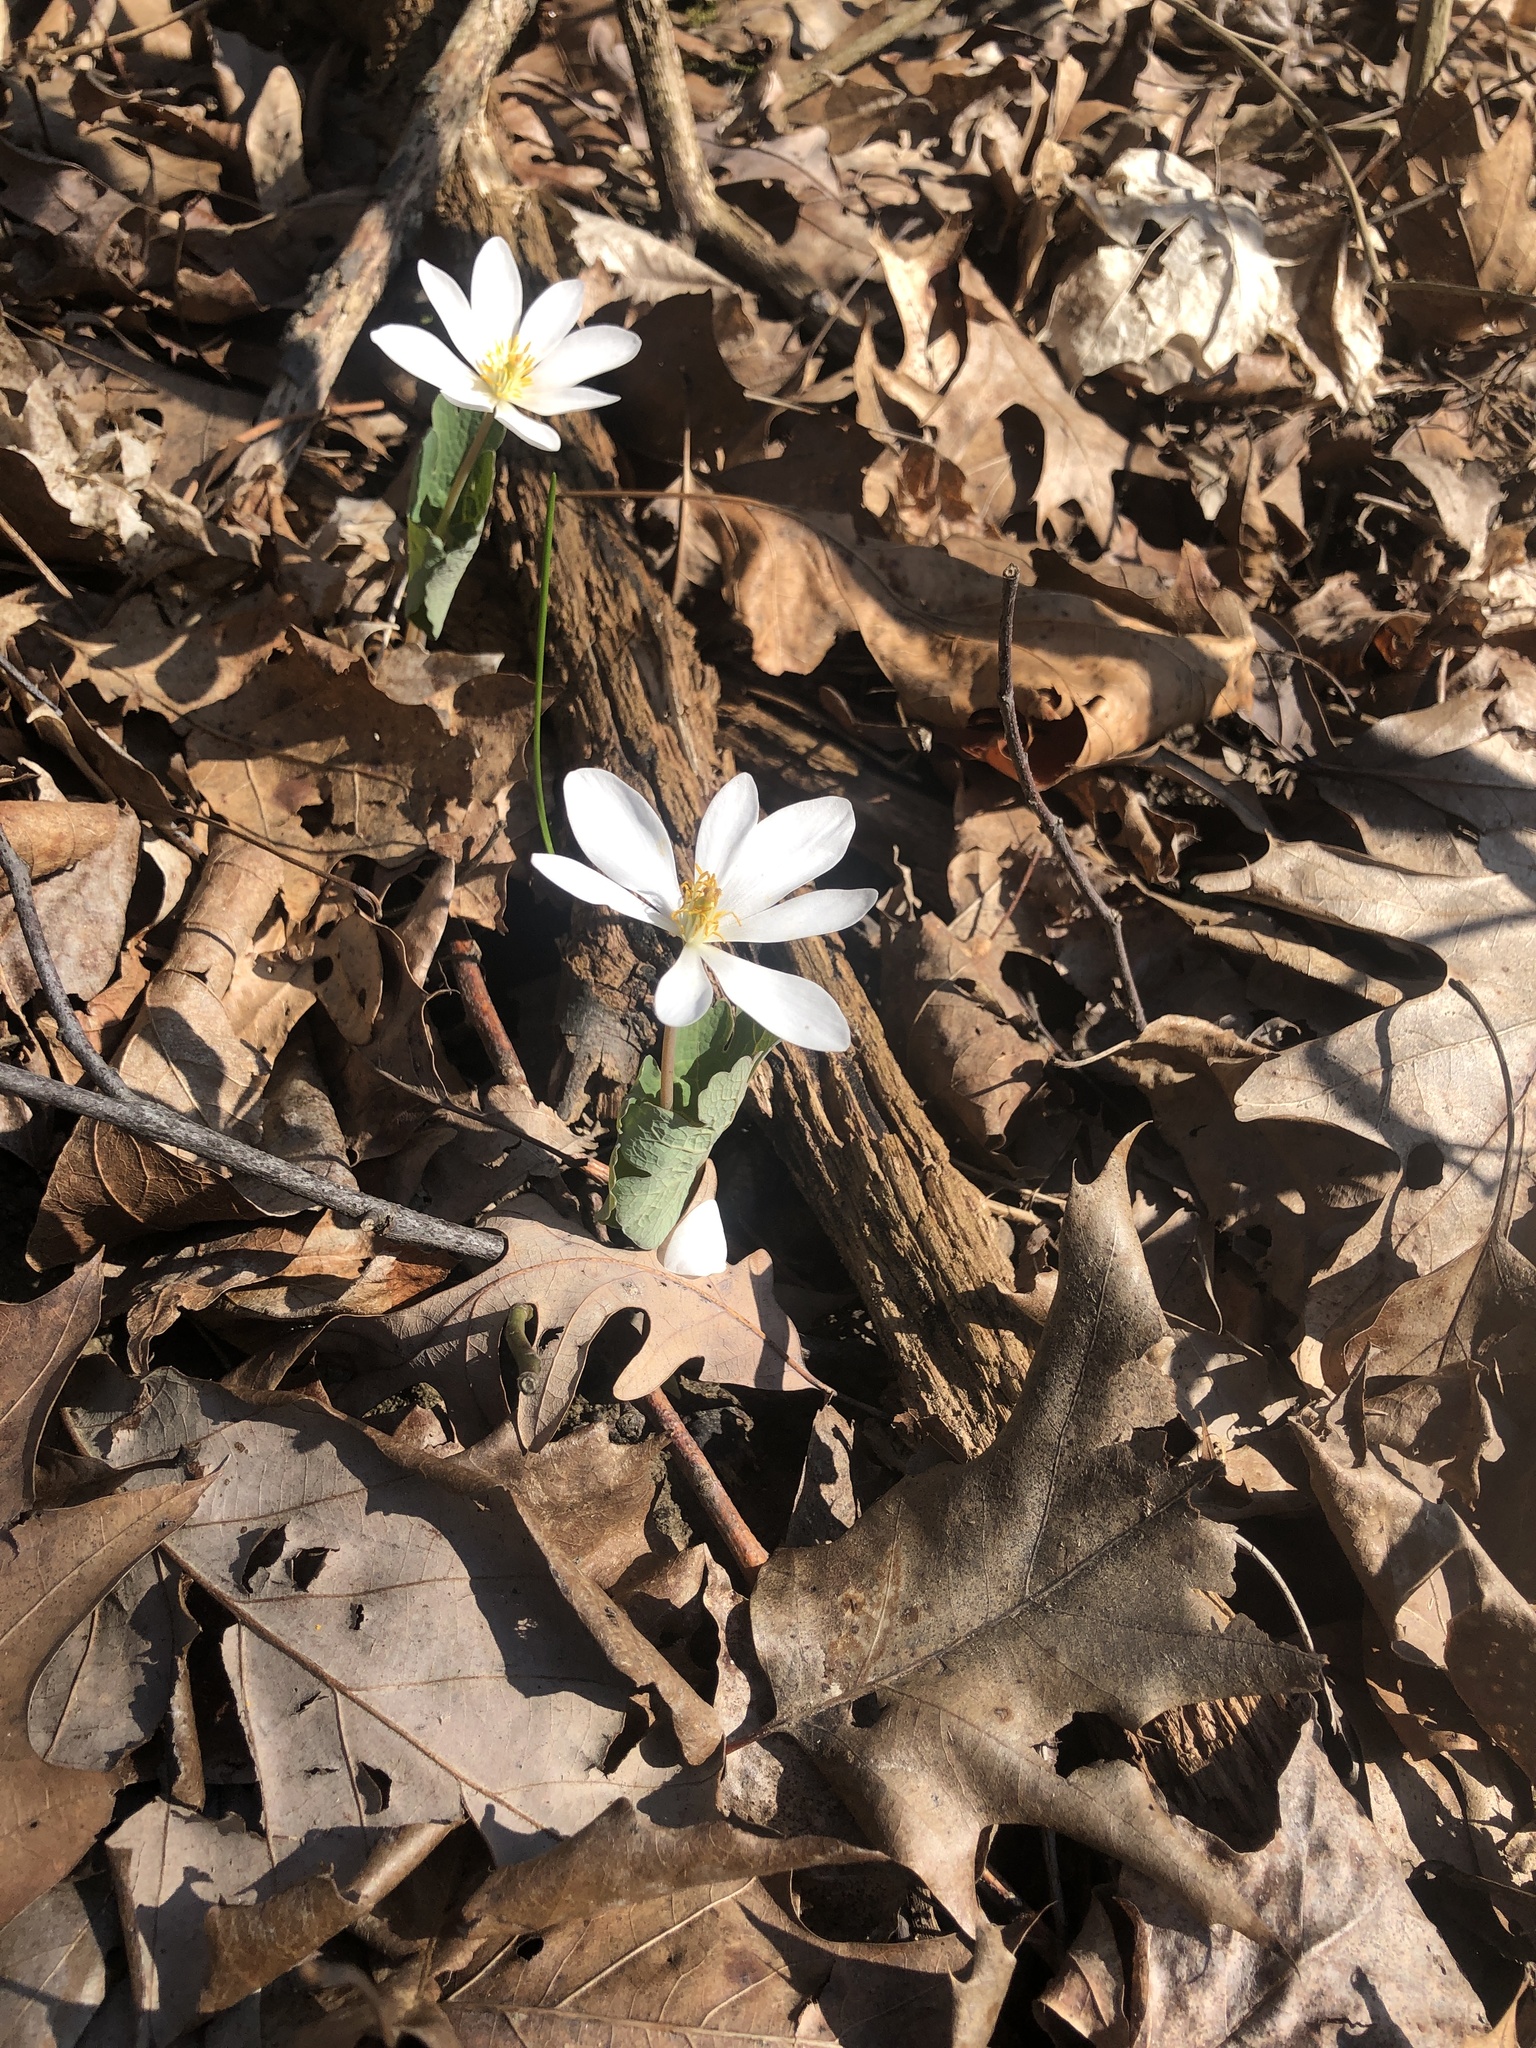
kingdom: Plantae
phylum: Tracheophyta
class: Magnoliopsida
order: Ranunculales
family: Papaveraceae
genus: Sanguinaria
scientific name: Sanguinaria canadensis
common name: Bloodroot
